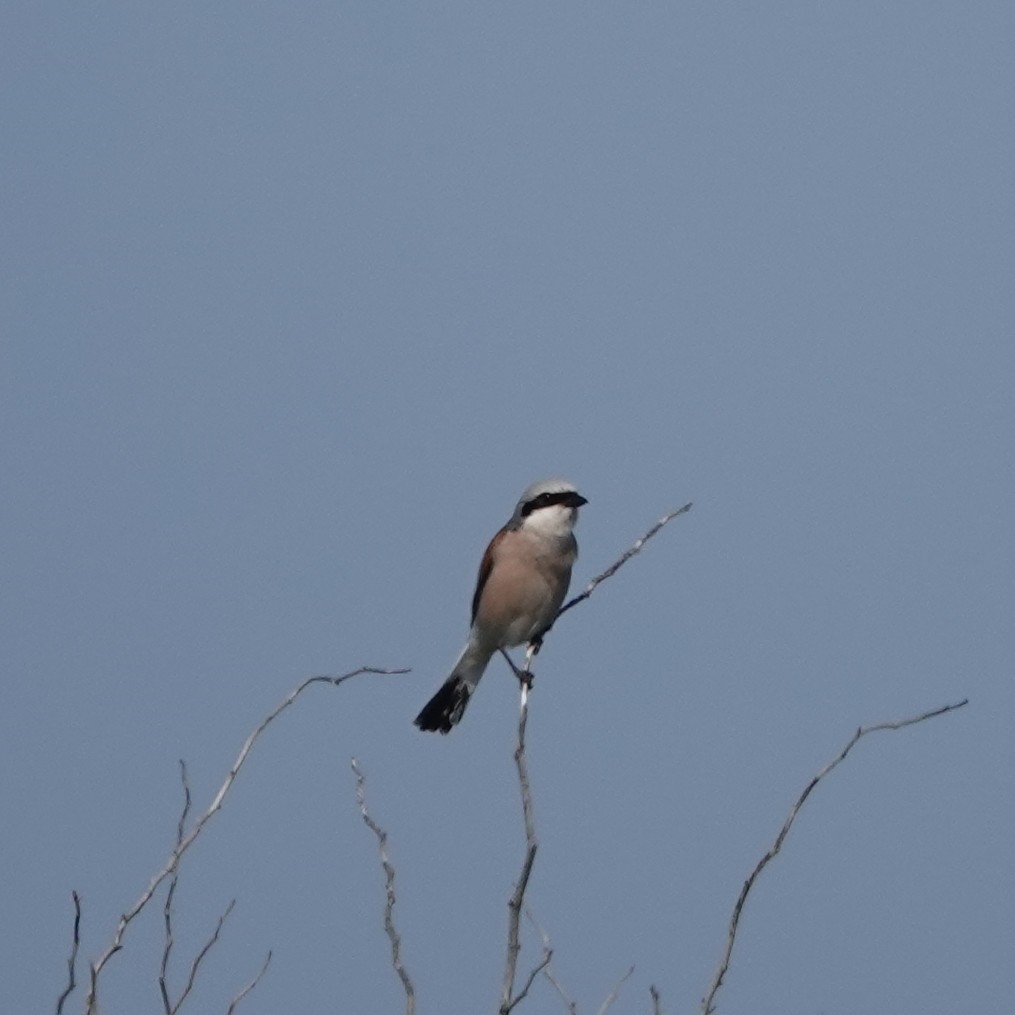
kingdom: Animalia
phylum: Chordata
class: Aves
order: Passeriformes
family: Laniidae
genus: Lanius
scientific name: Lanius collurio
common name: Red-backed shrike
